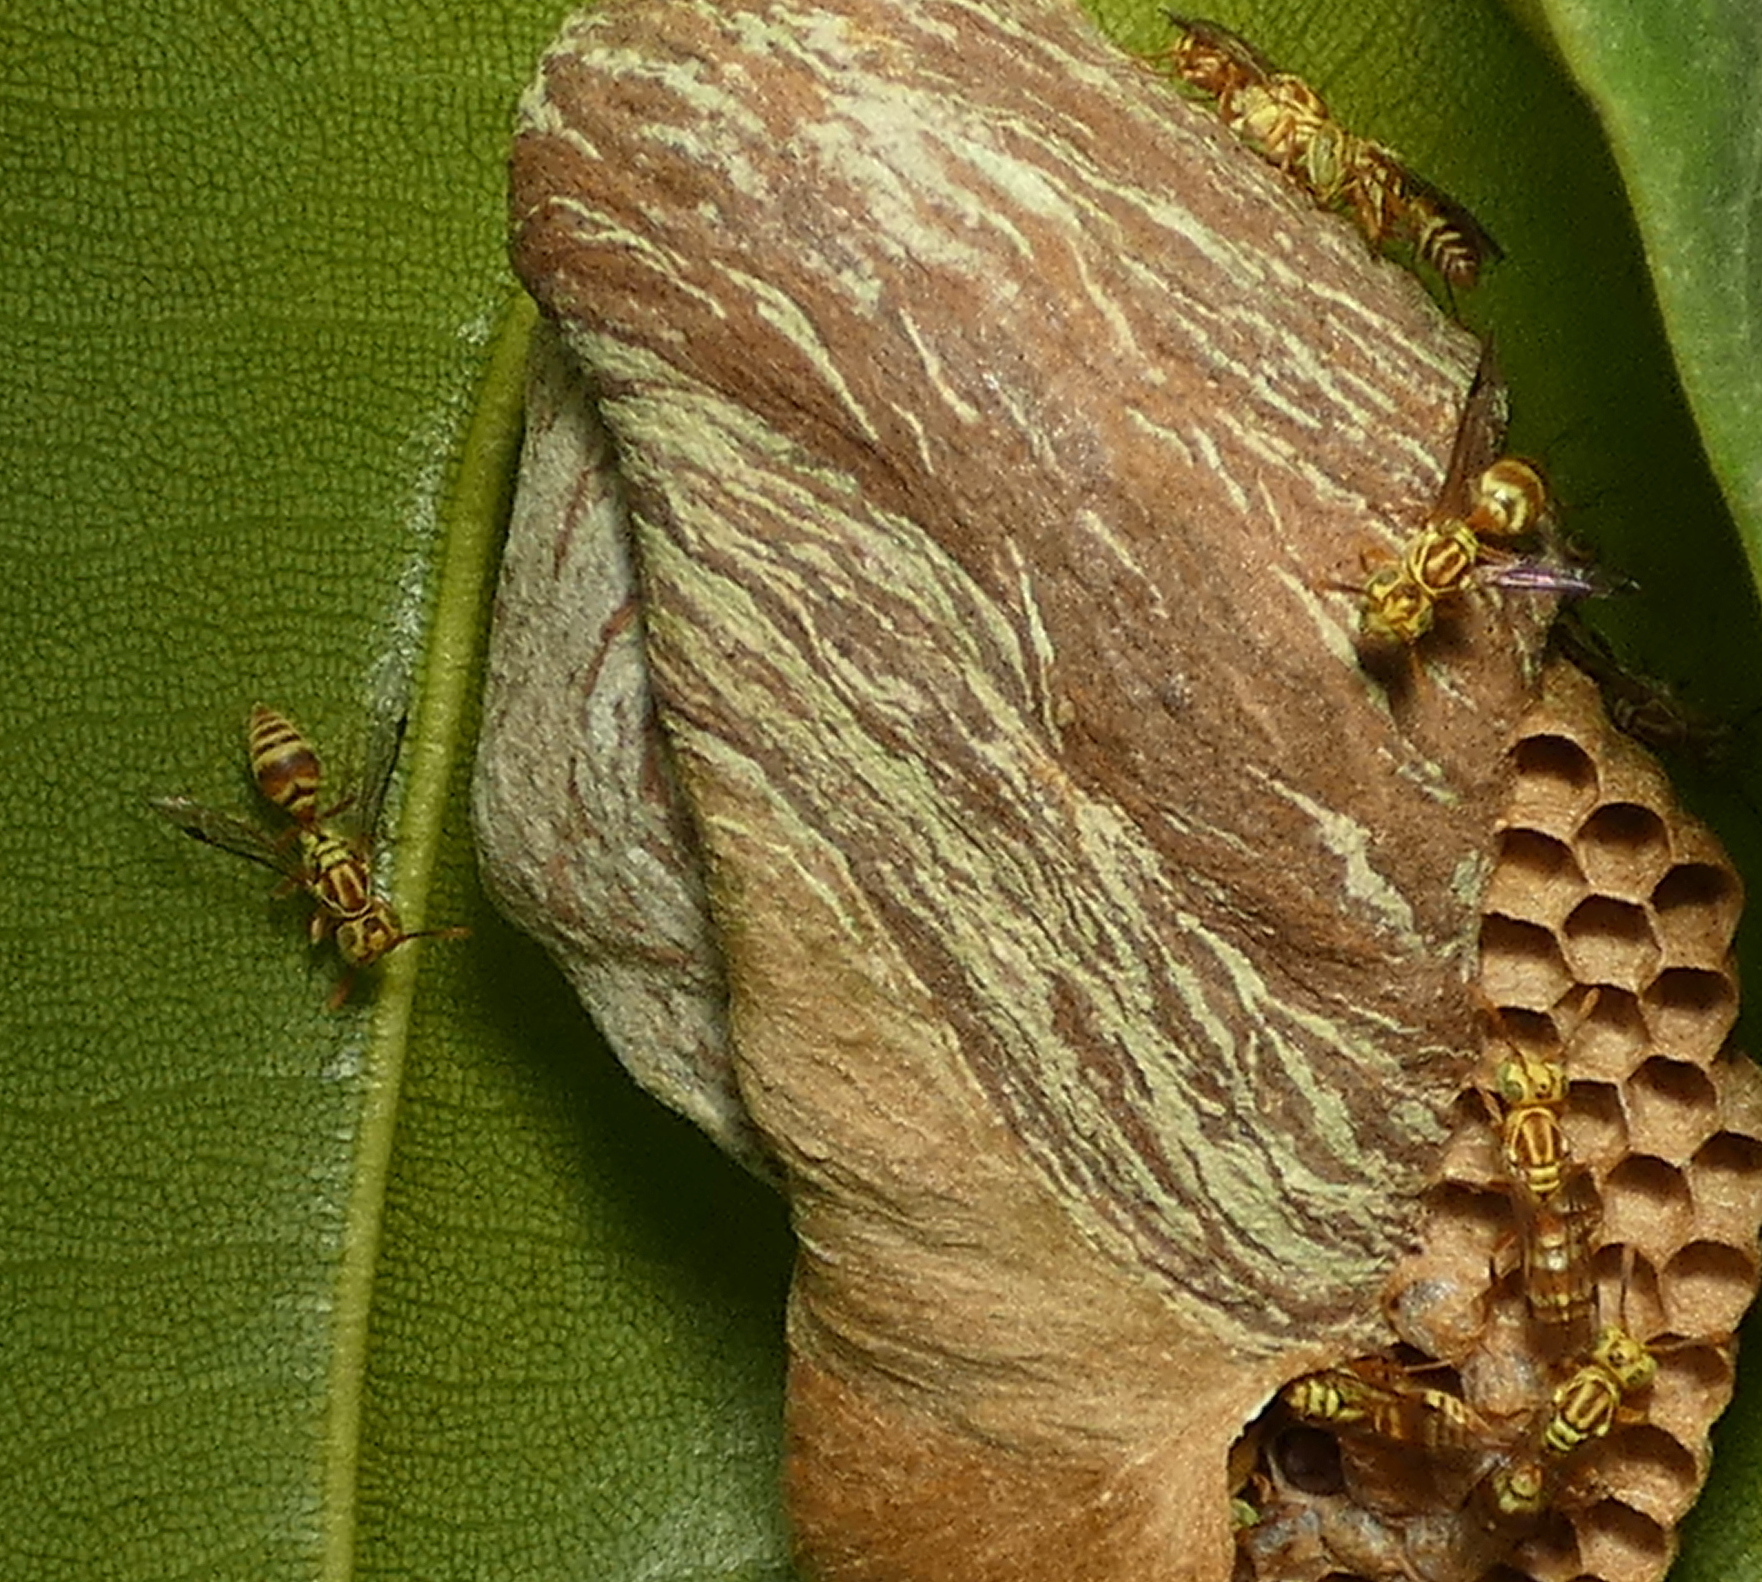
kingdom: Animalia
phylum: Arthropoda
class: Insecta
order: Hymenoptera
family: Vespidae
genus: Protopolybia
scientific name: Protopolybia potiguara
